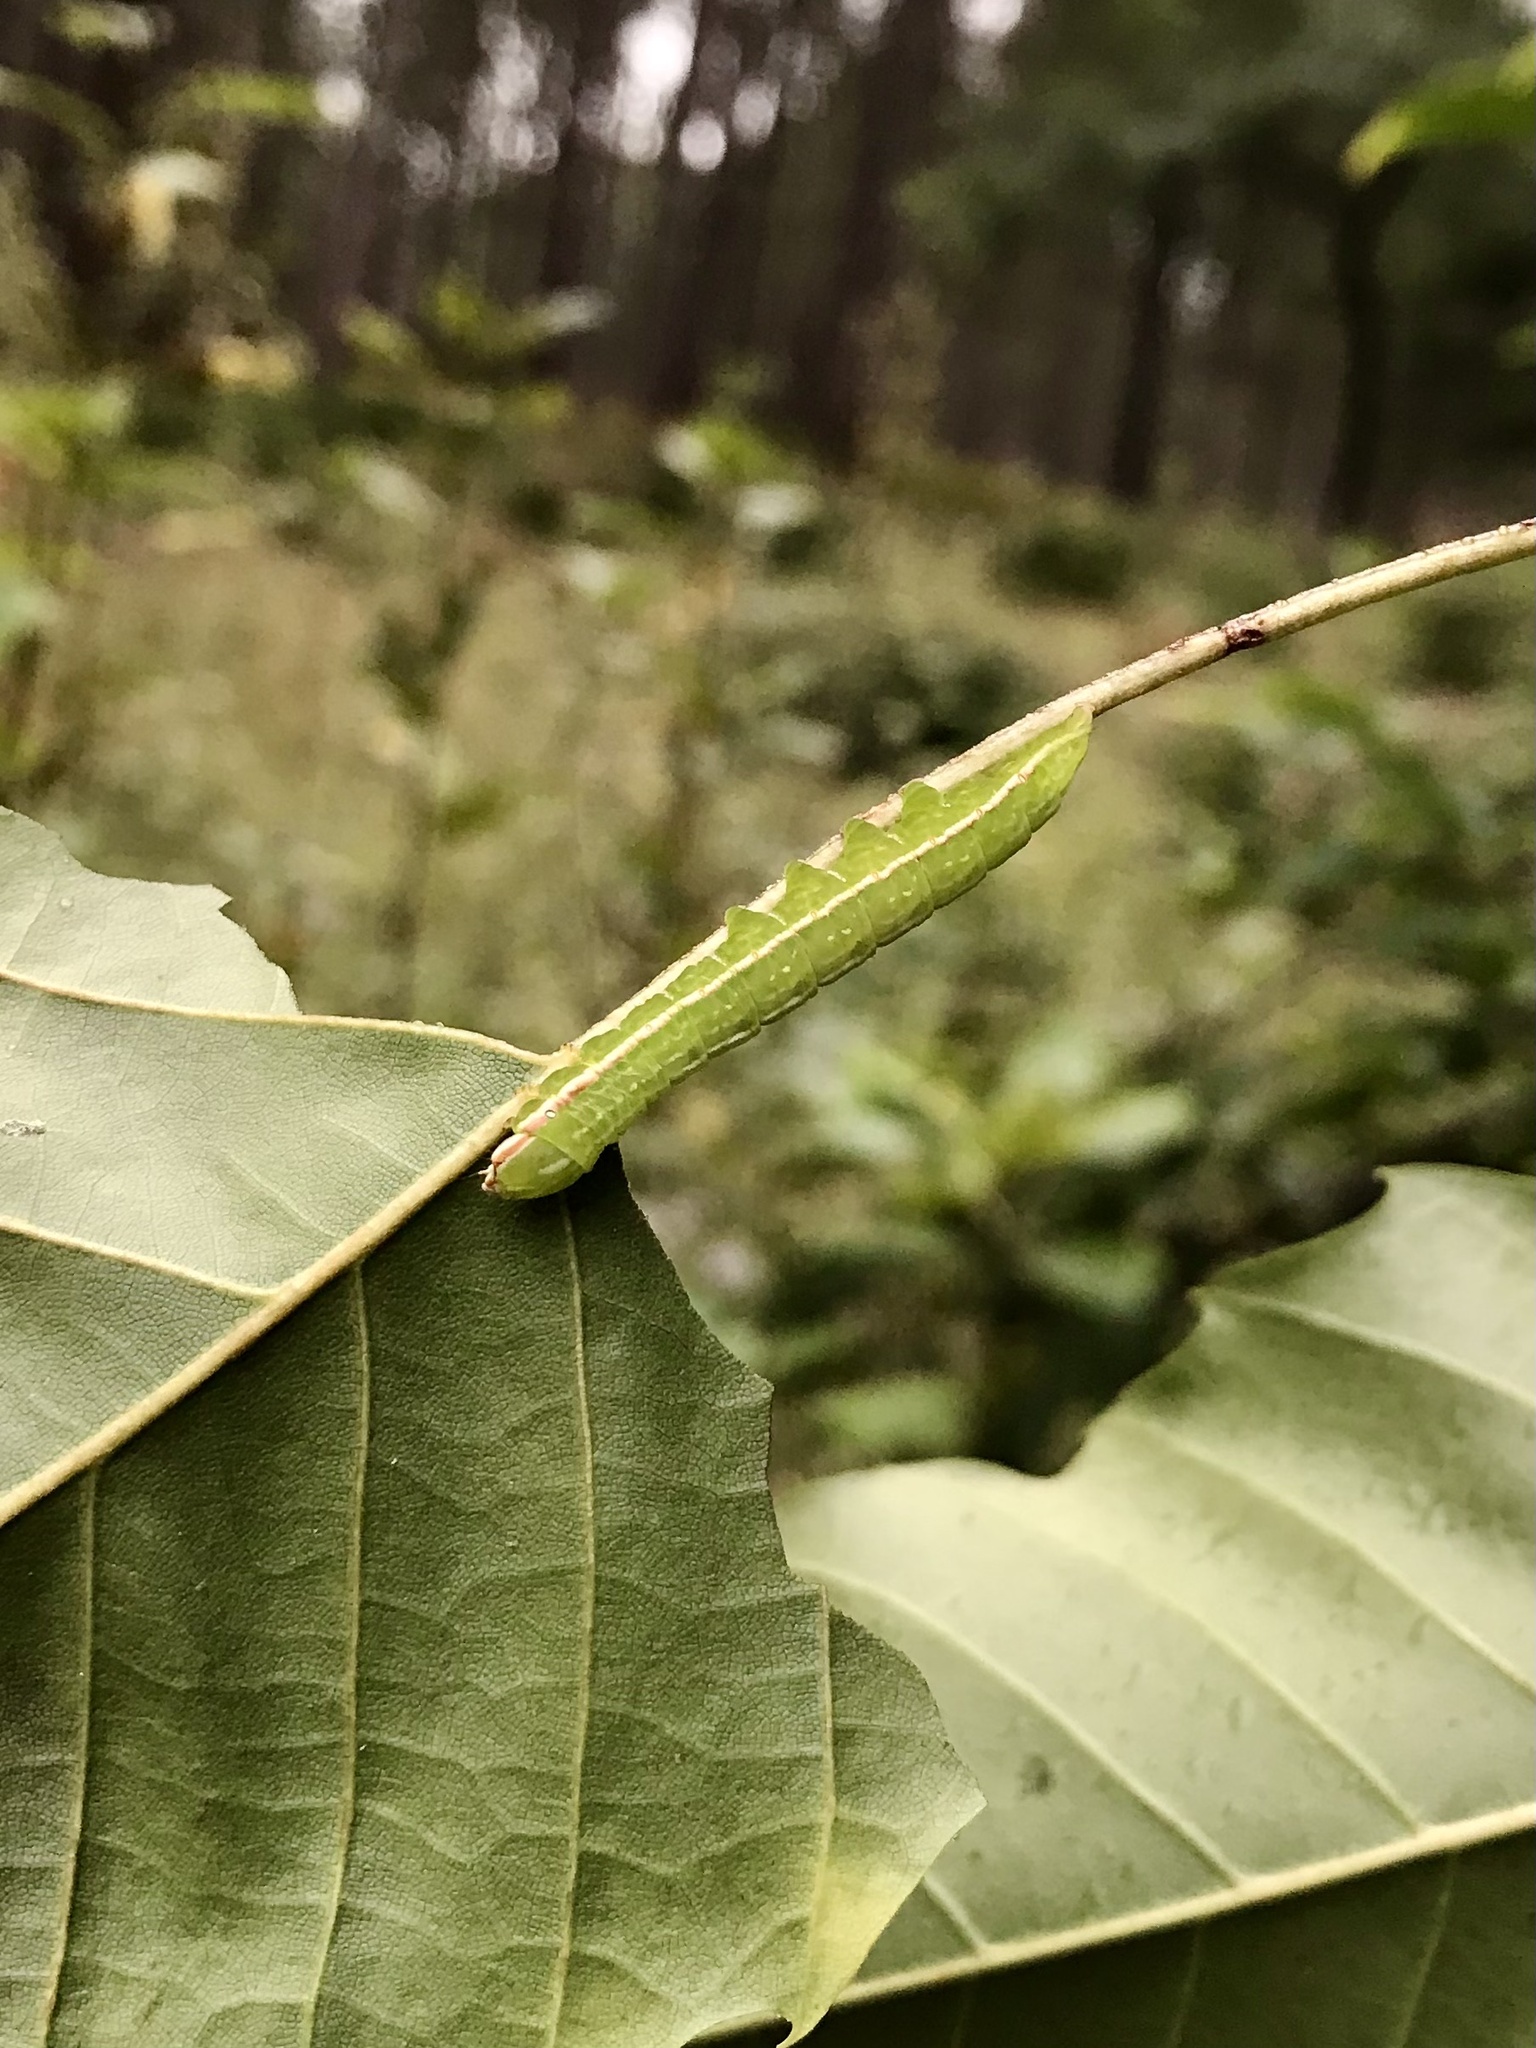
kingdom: Animalia
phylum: Arthropoda
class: Insecta
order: Lepidoptera
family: Notodontidae
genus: Peridea
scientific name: Peridea angulosa
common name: Angulose prominent
